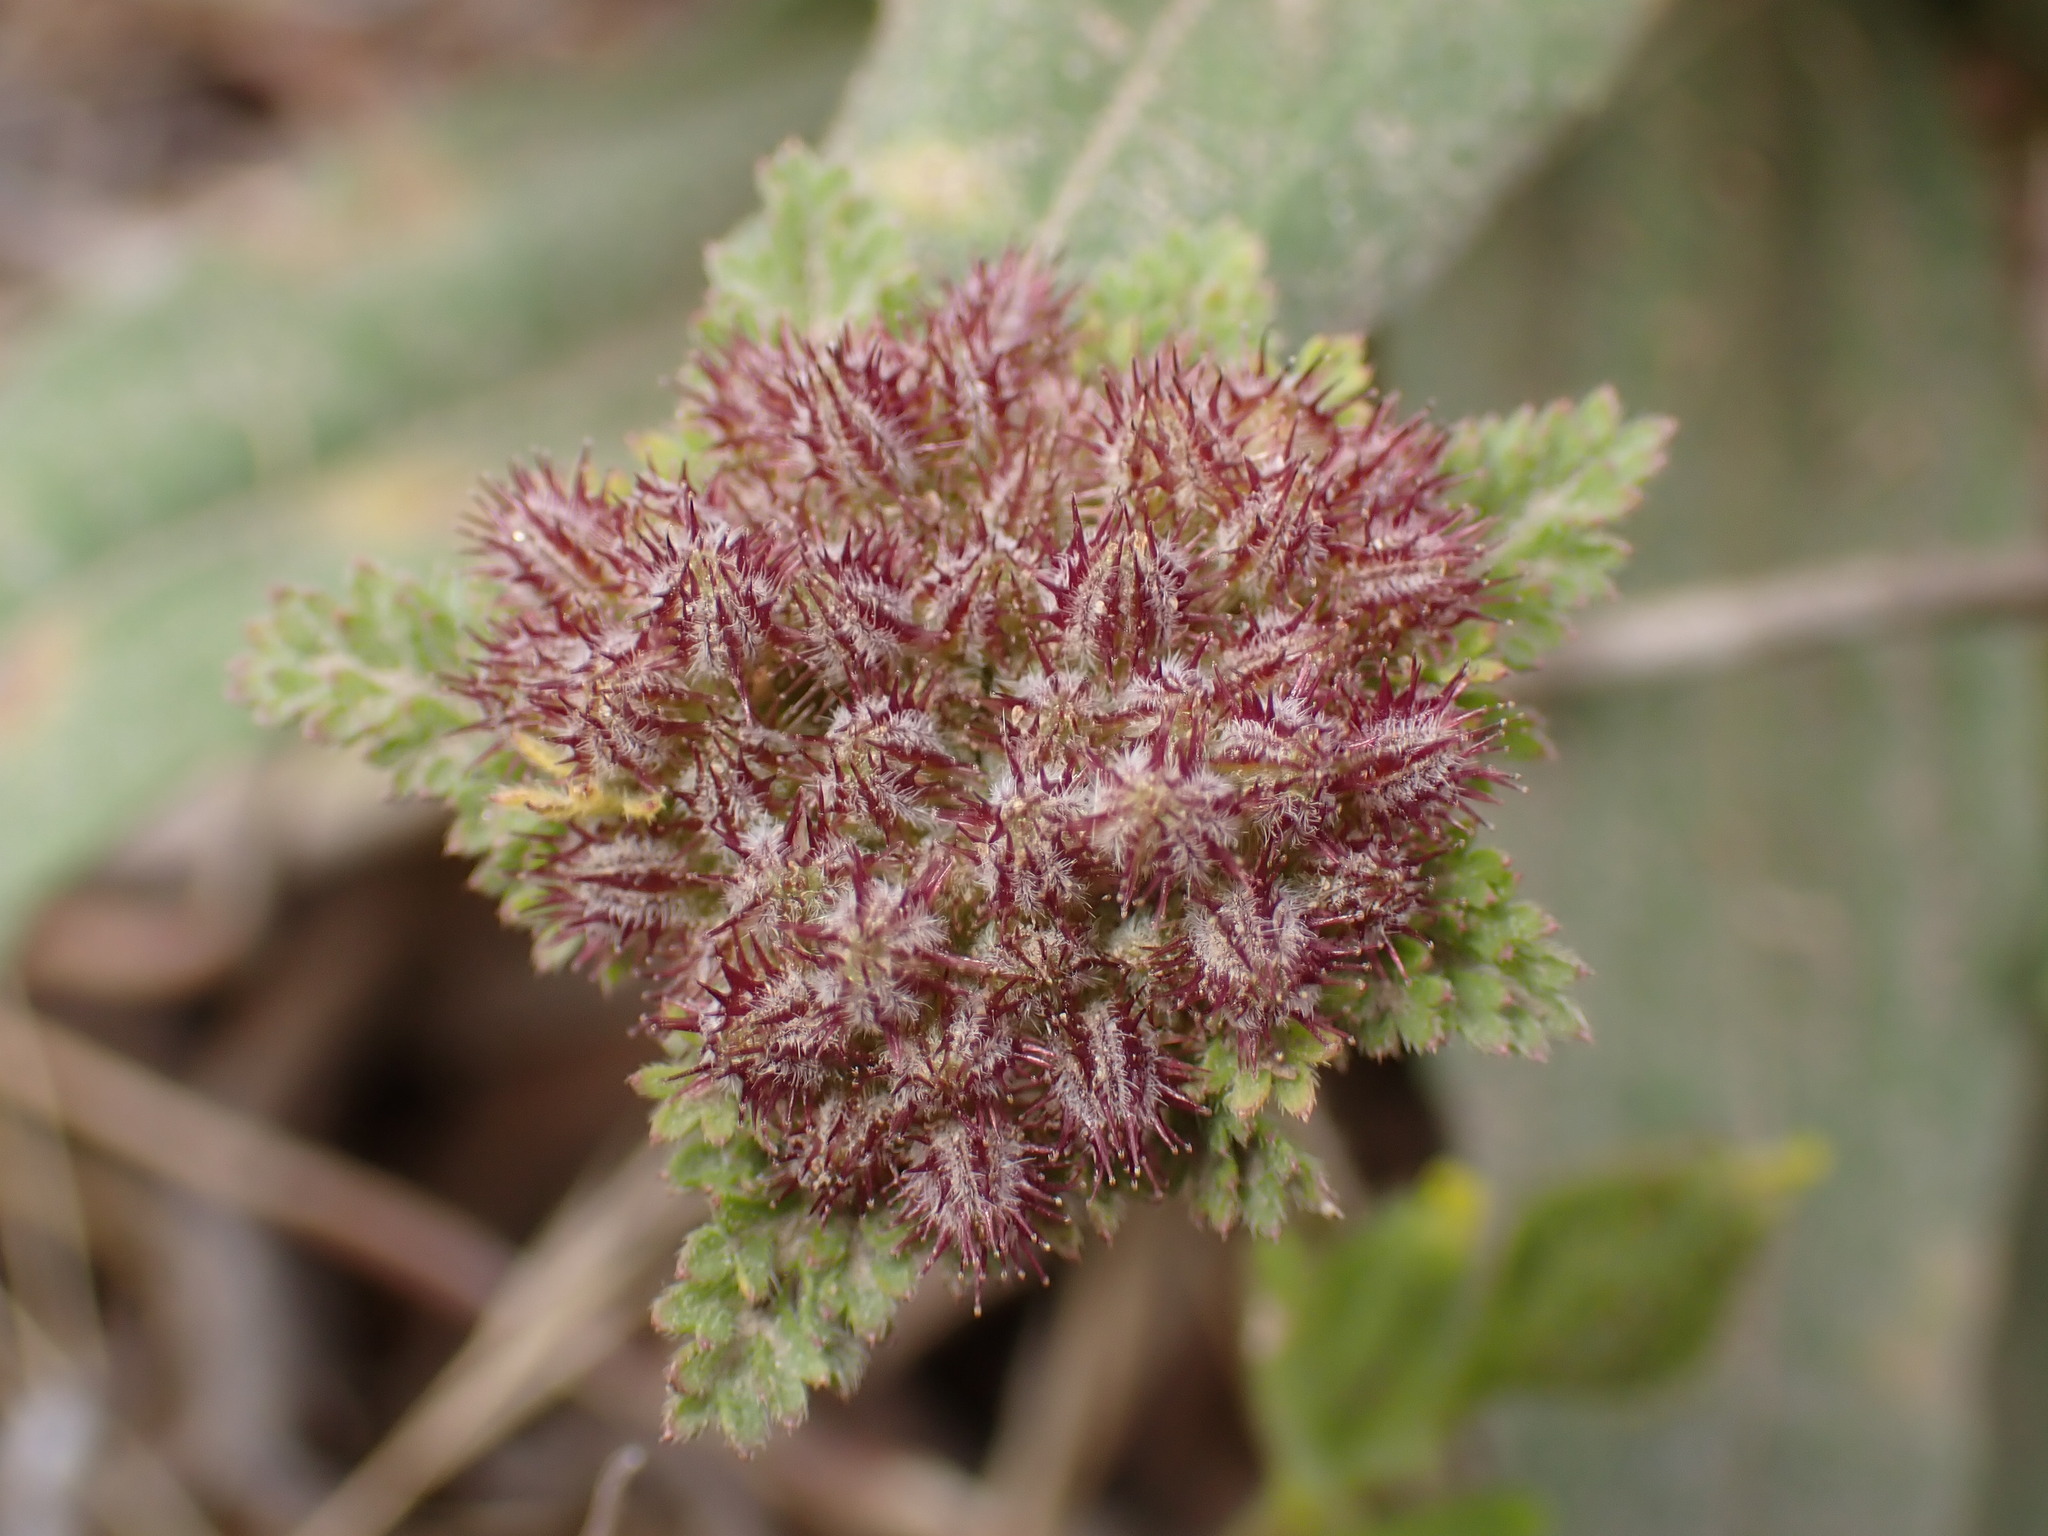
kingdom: Plantae
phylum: Tracheophyta
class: Magnoliopsida
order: Apiales
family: Apiaceae
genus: Daucus
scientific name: Daucus pusillus
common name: Southwest wild carrot
